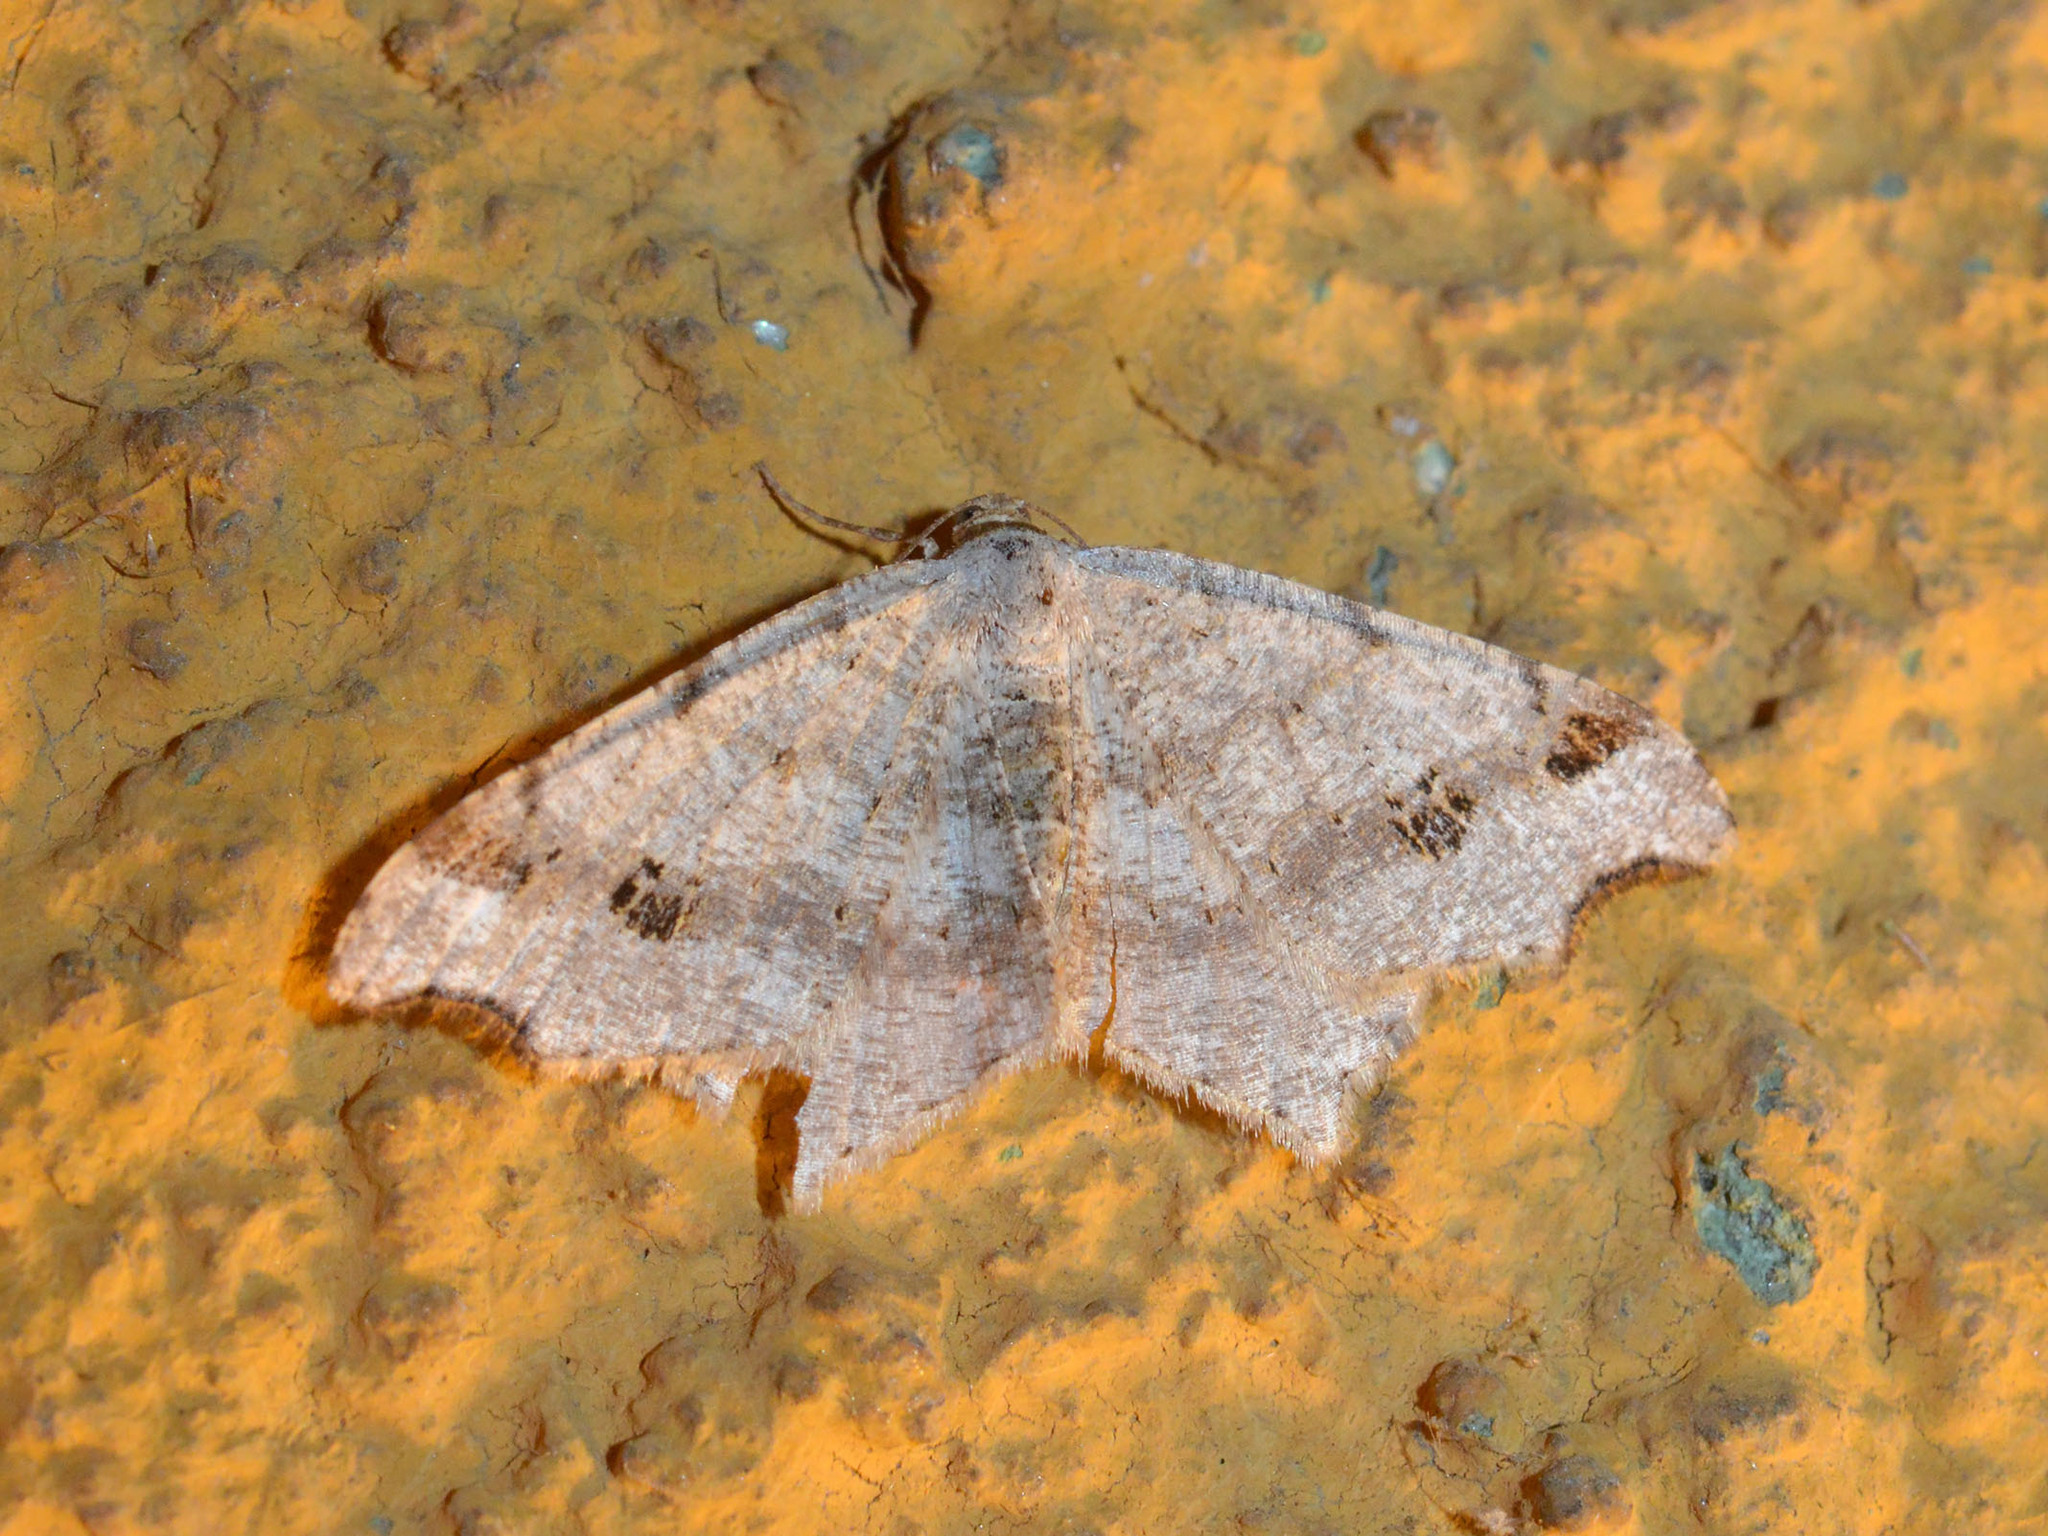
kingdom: Animalia
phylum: Arthropoda
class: Insecta
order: Lepidoptera
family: Geometridae
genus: Macaria
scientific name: Macaria alternata
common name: Sharp-angled peacock
